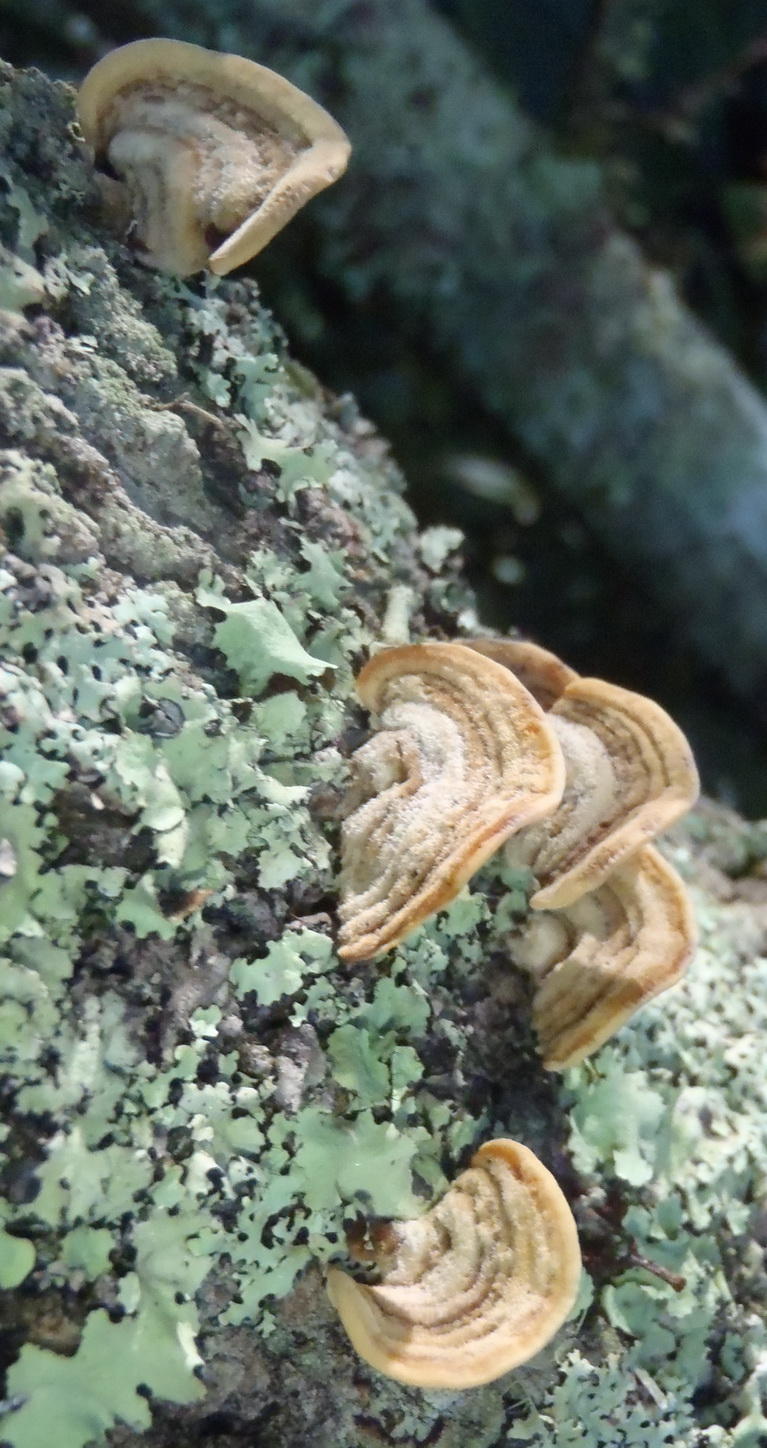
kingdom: Fungi
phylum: Basidiomycota
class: Agaricomycetes
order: Russulales
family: Stereaceae
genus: Stereum
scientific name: Stereum hirsutum
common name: Hairy curtain crust
